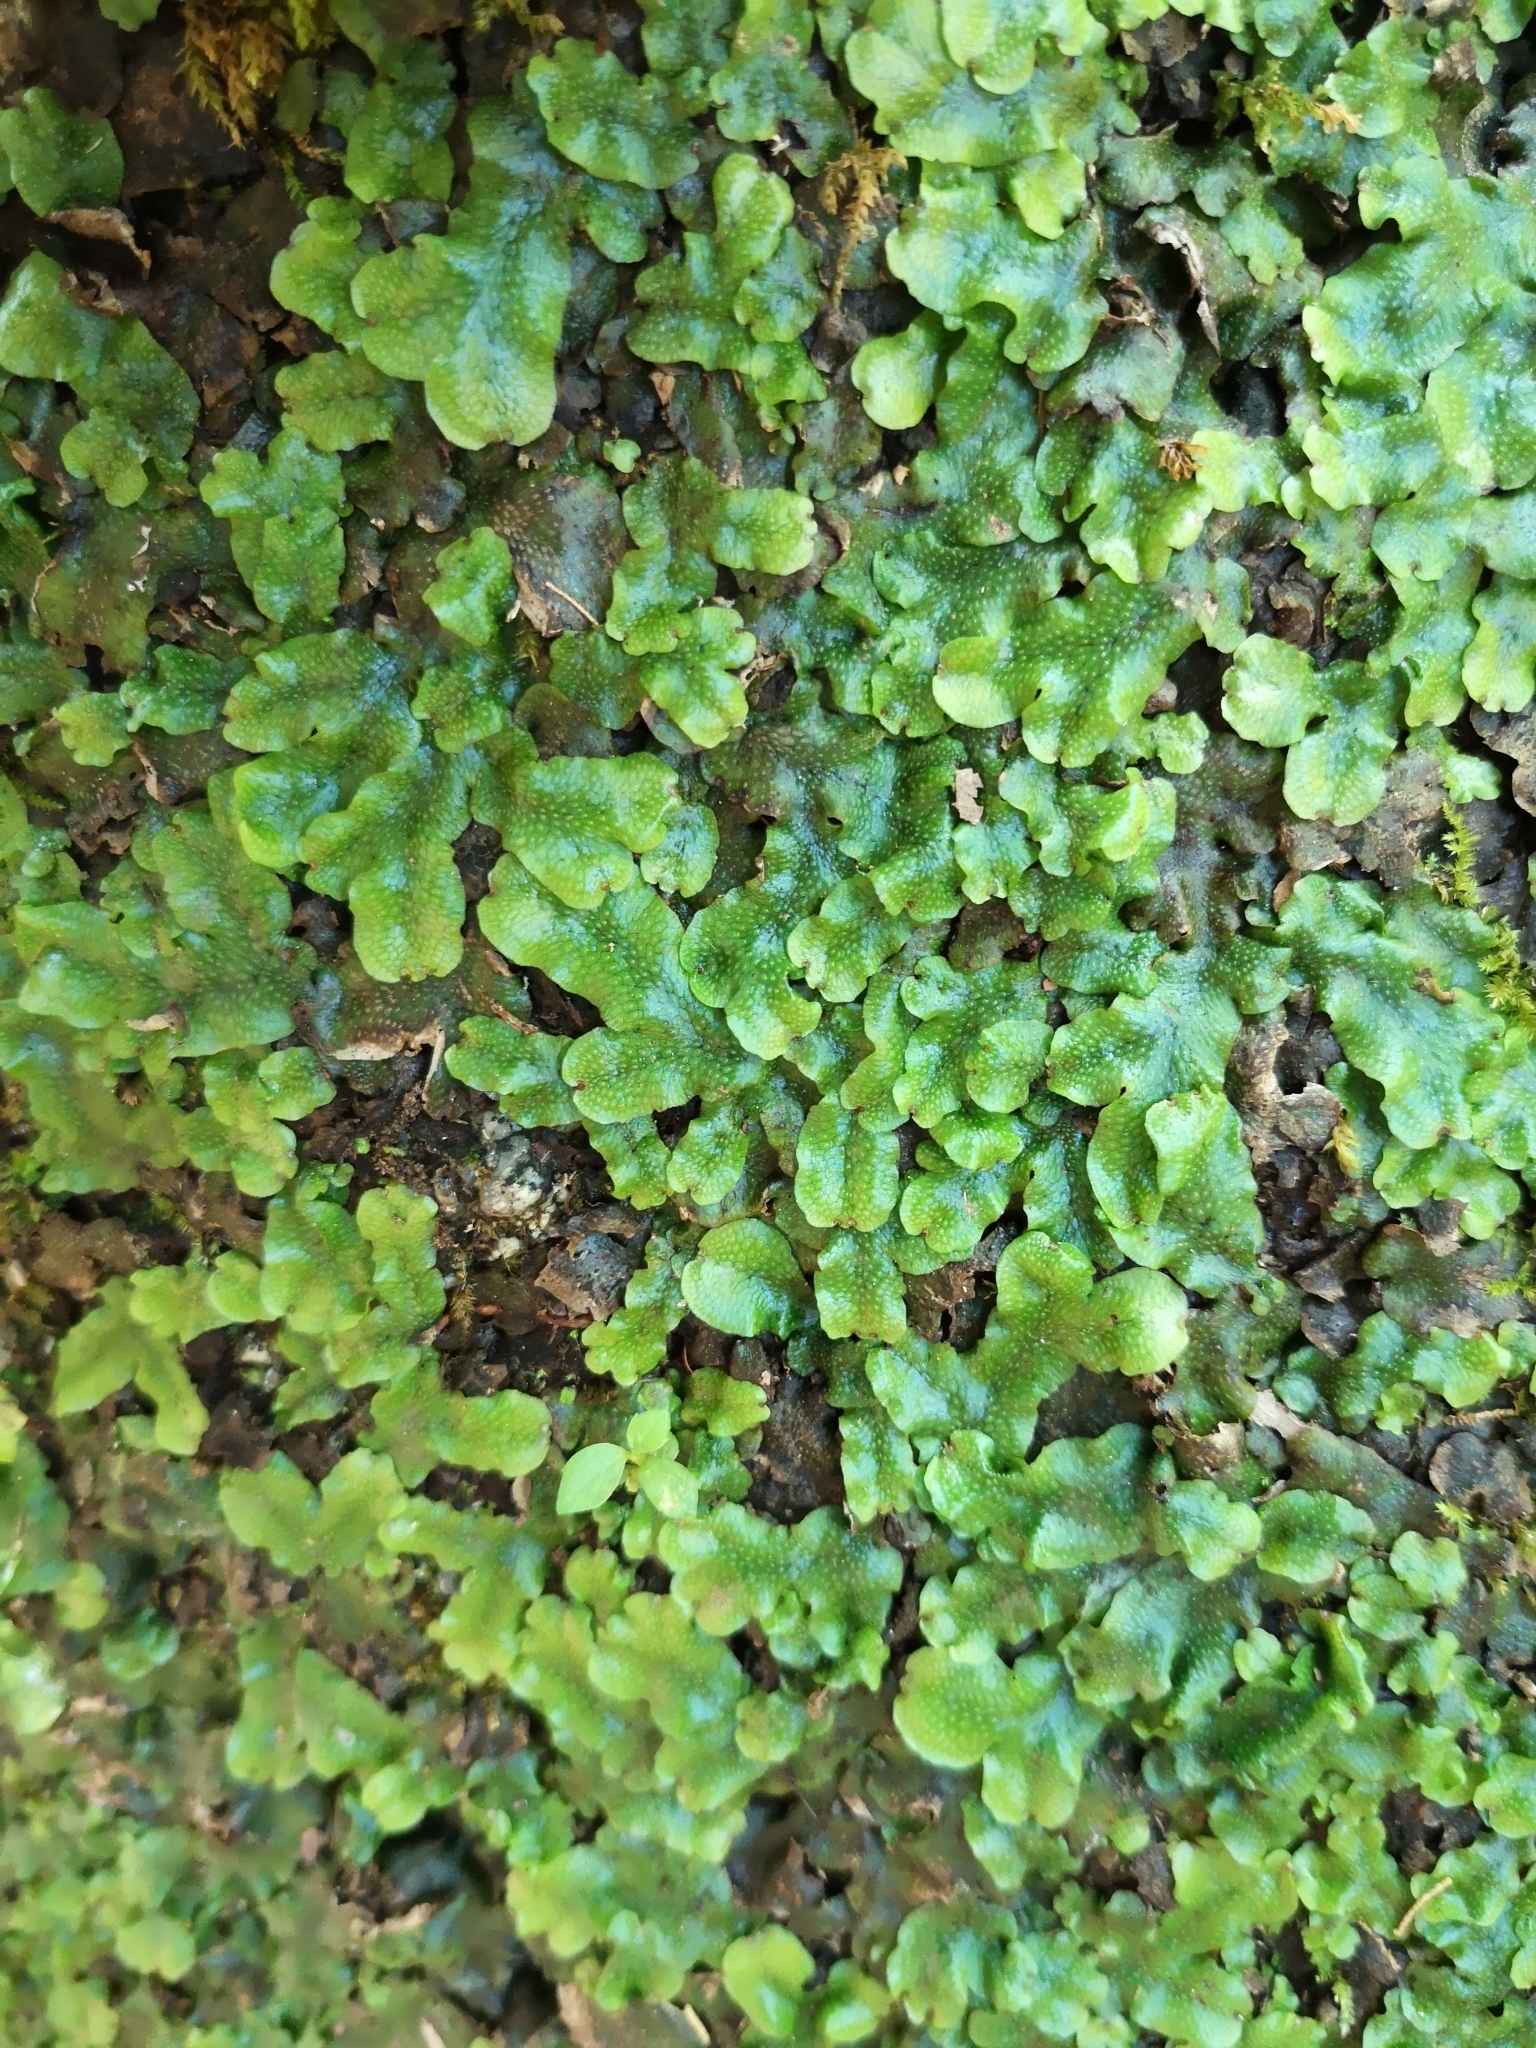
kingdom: Plantae
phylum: Marchantiophyta
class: Marchantiopsida
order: Marchantiales
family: Conocephalaceae
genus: Conocephalum
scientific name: Conocephalum conicum
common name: Great scented liverwort
